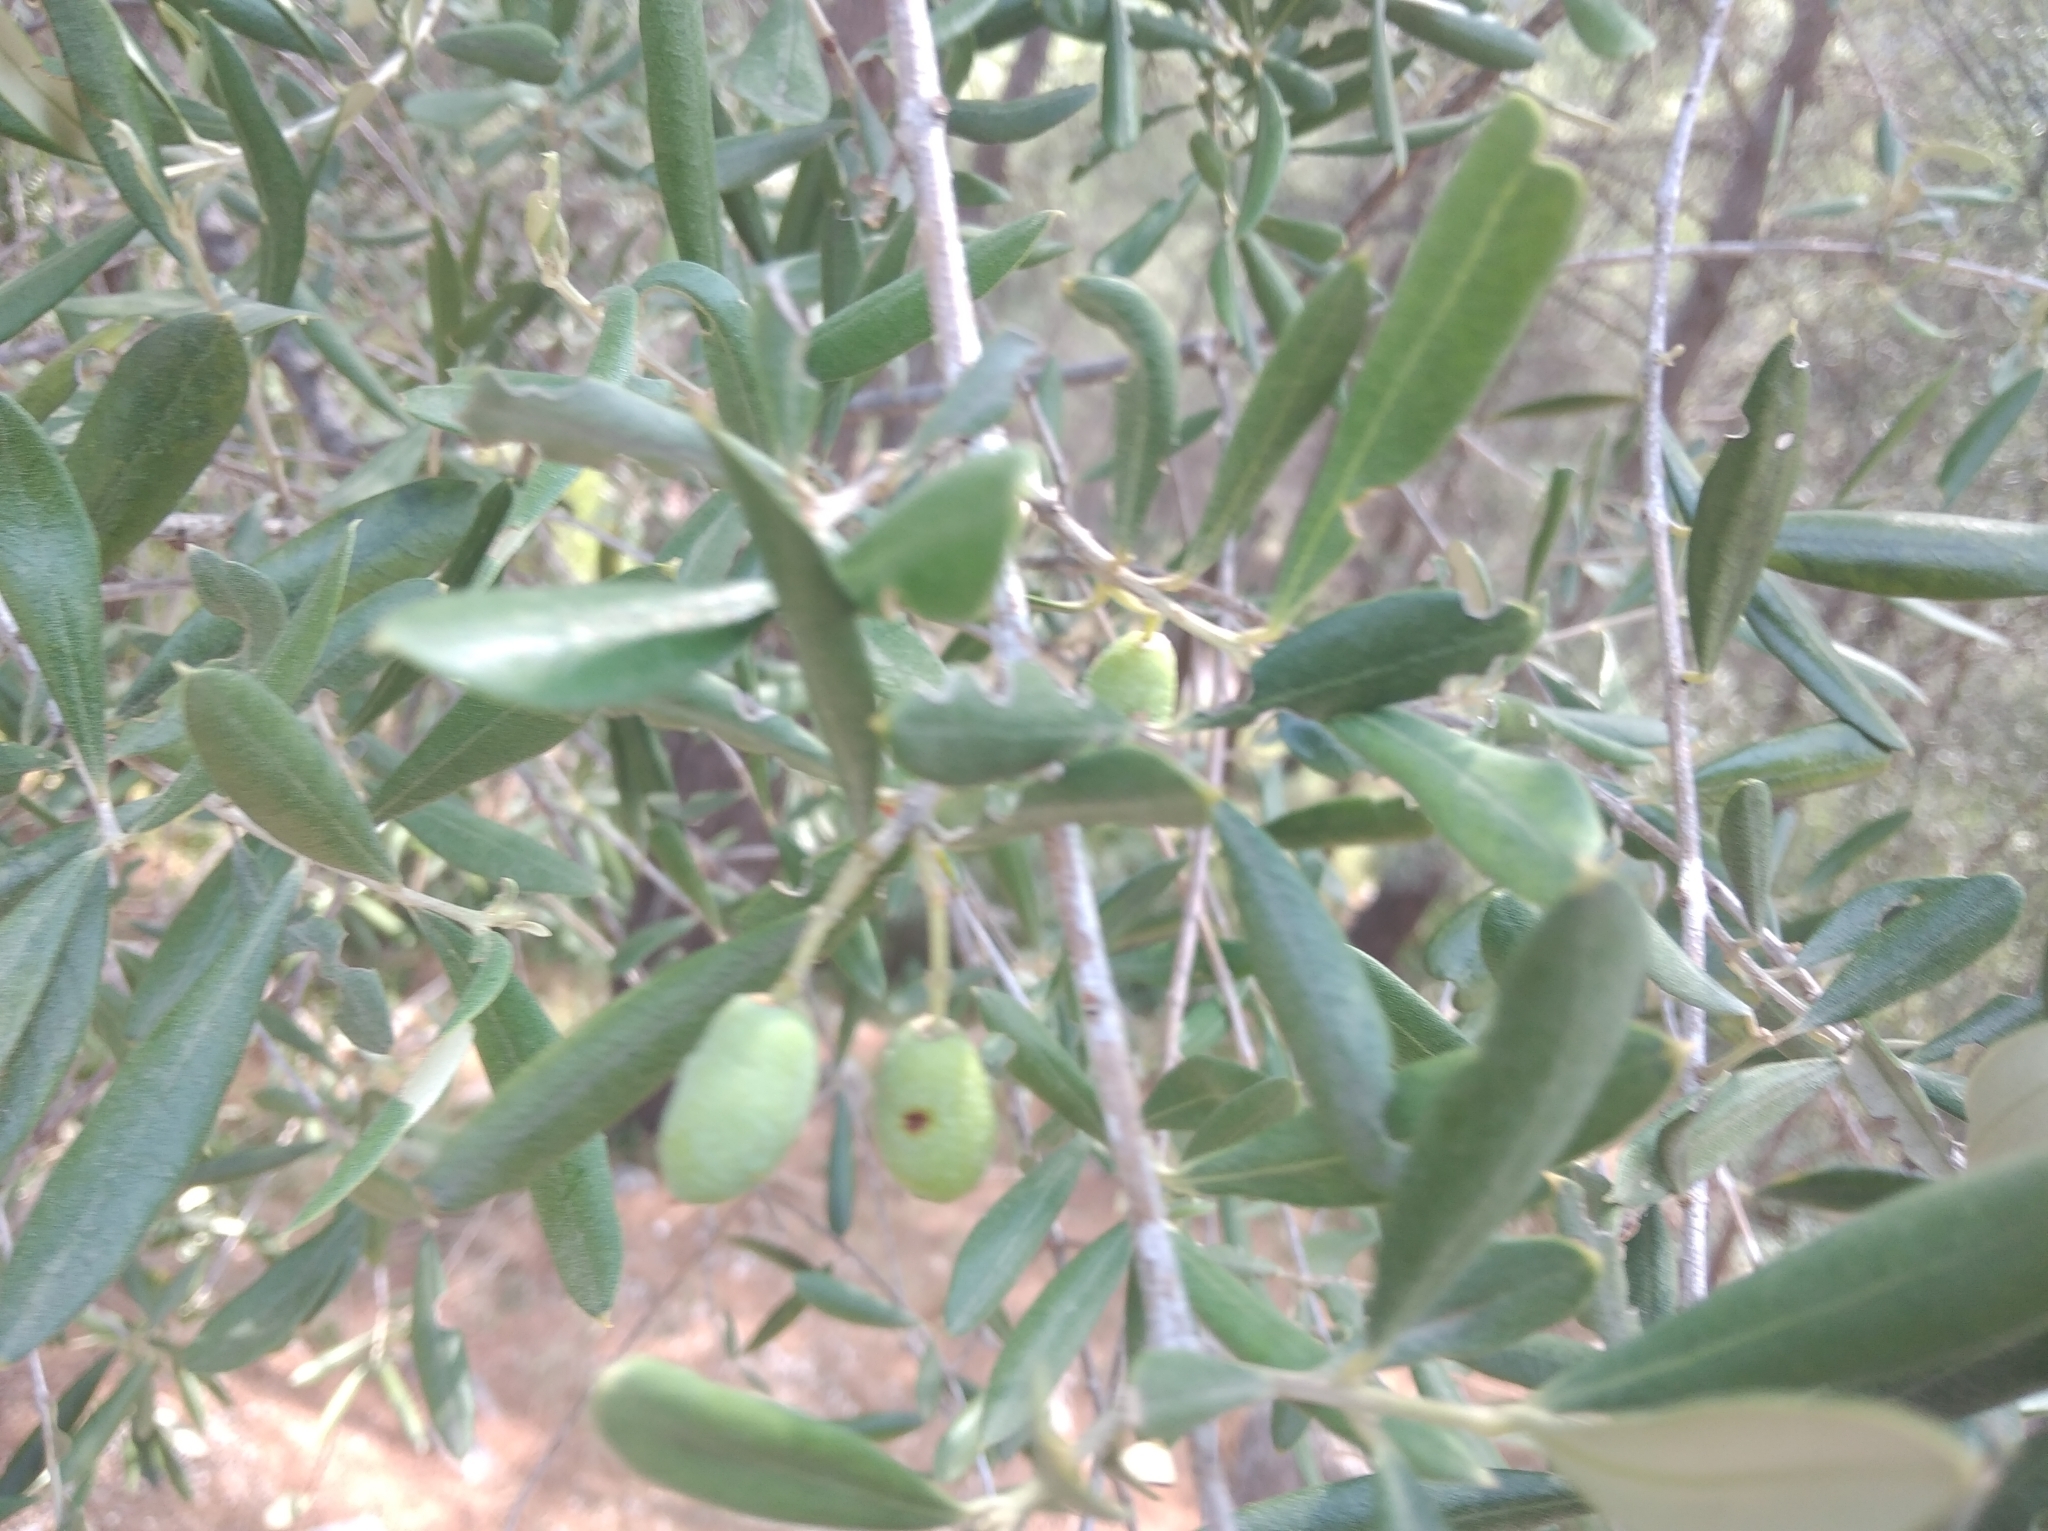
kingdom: Plantae
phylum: Tracheophyta
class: Magnoliopsida
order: Lamiales
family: Oleaceae
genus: Olea
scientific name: Olea europaea
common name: Olive
